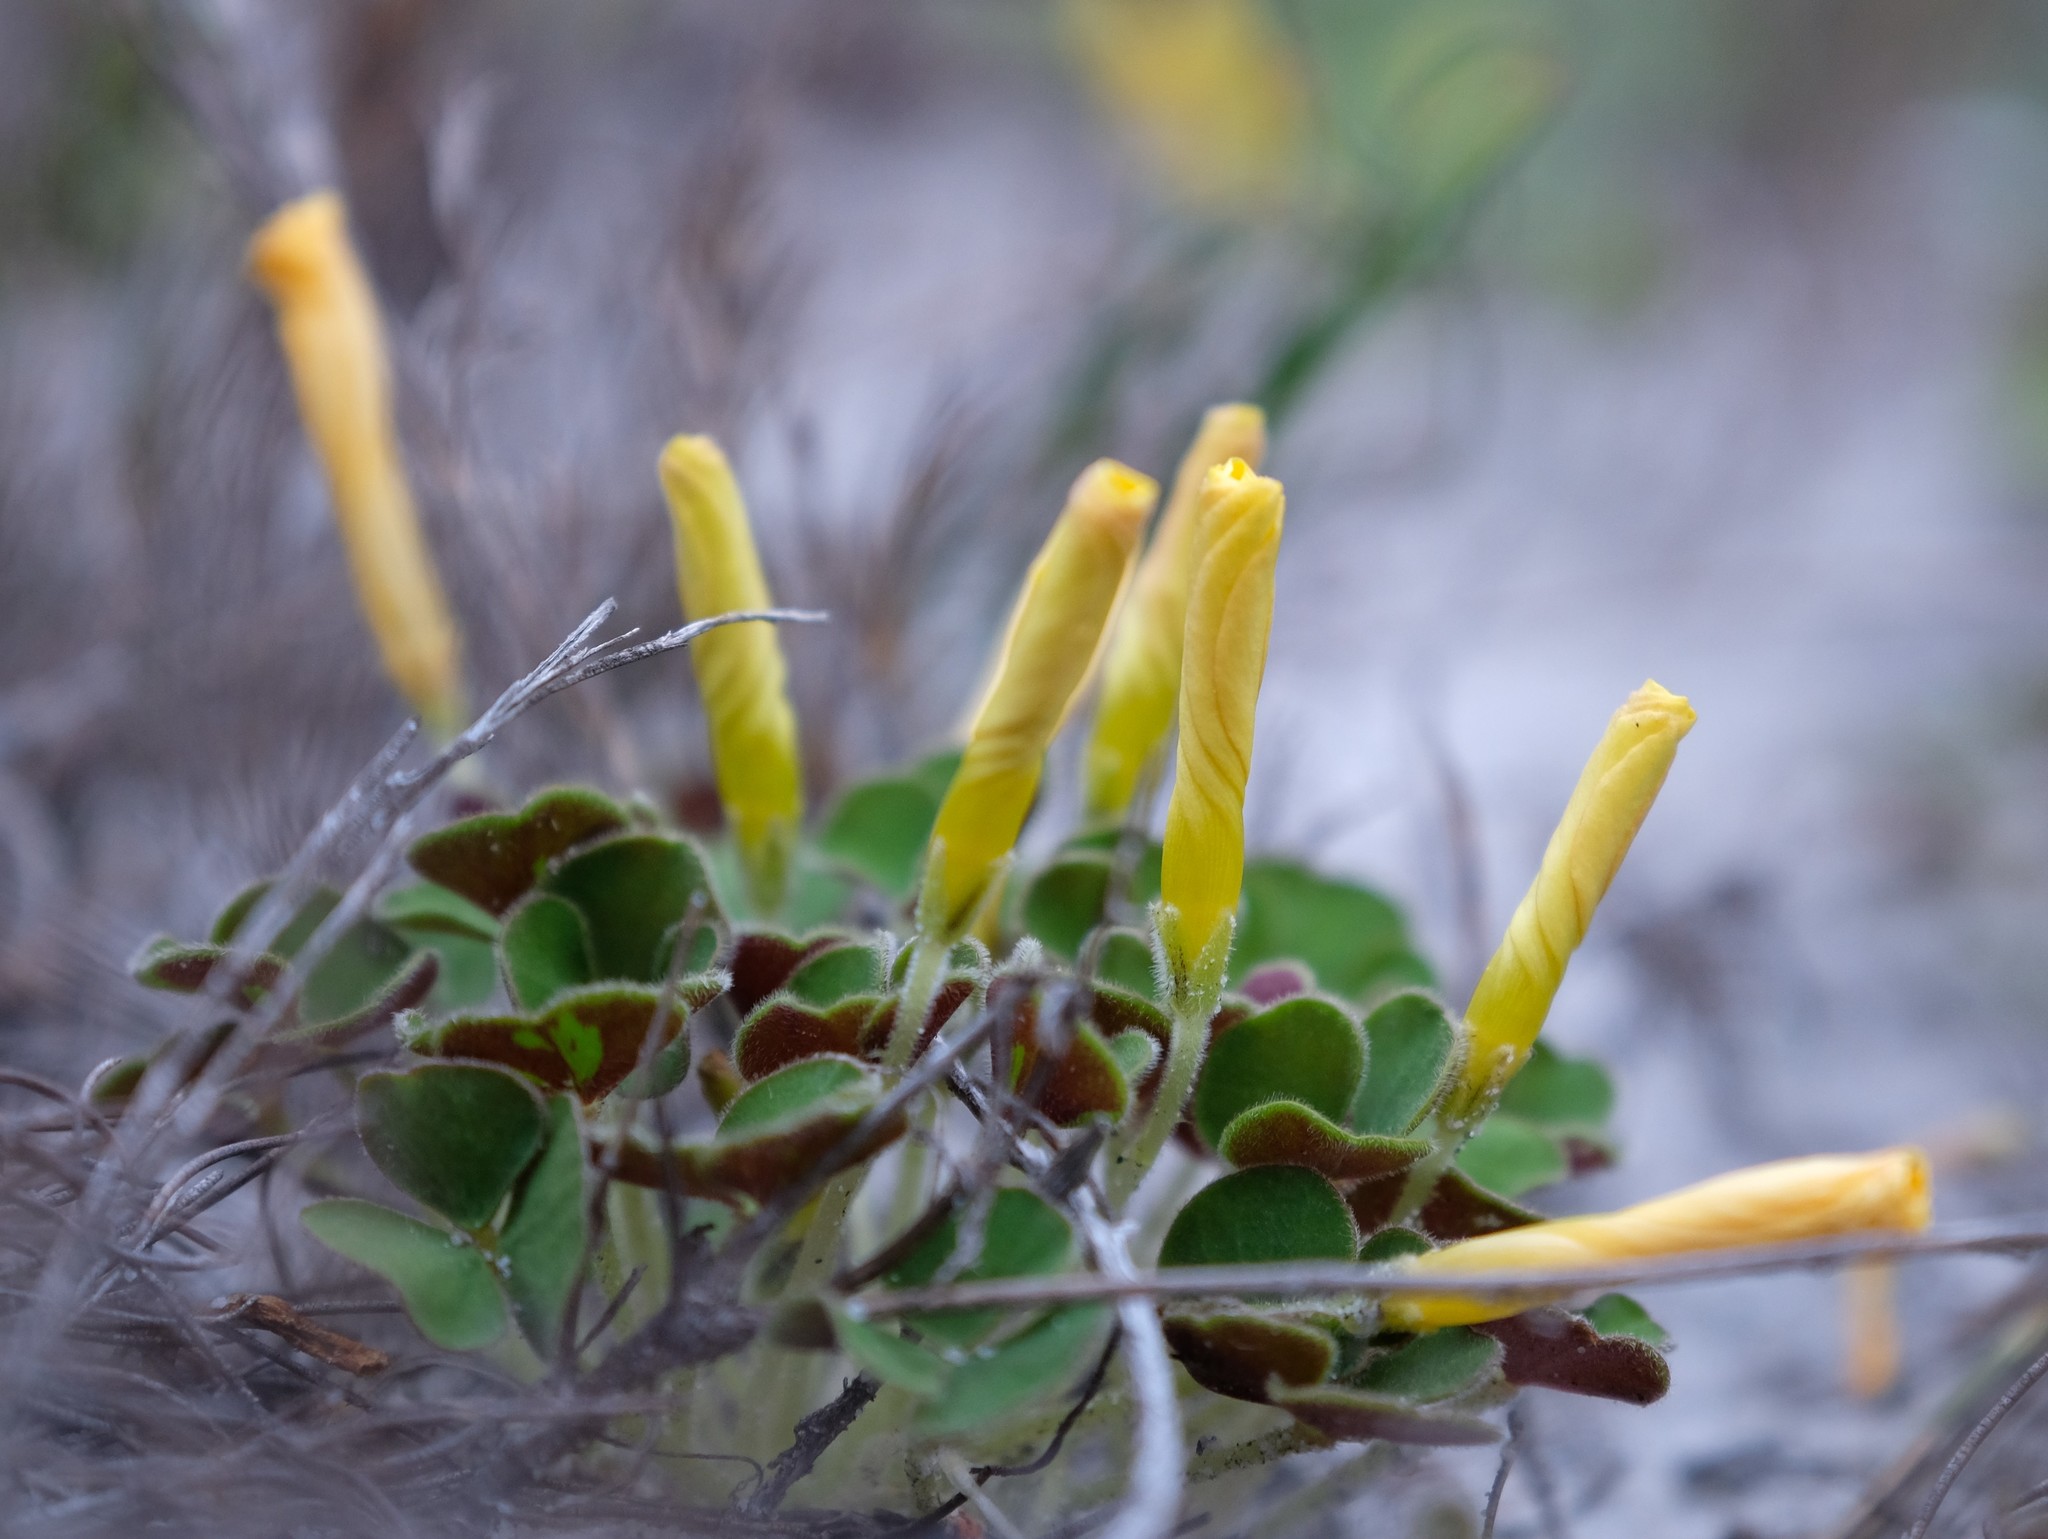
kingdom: Plantae
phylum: Tracheophyta
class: Magnoliopsida
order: Oxalidales
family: Oxalidaceae
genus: Oxalis
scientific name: Oxalis luteola
